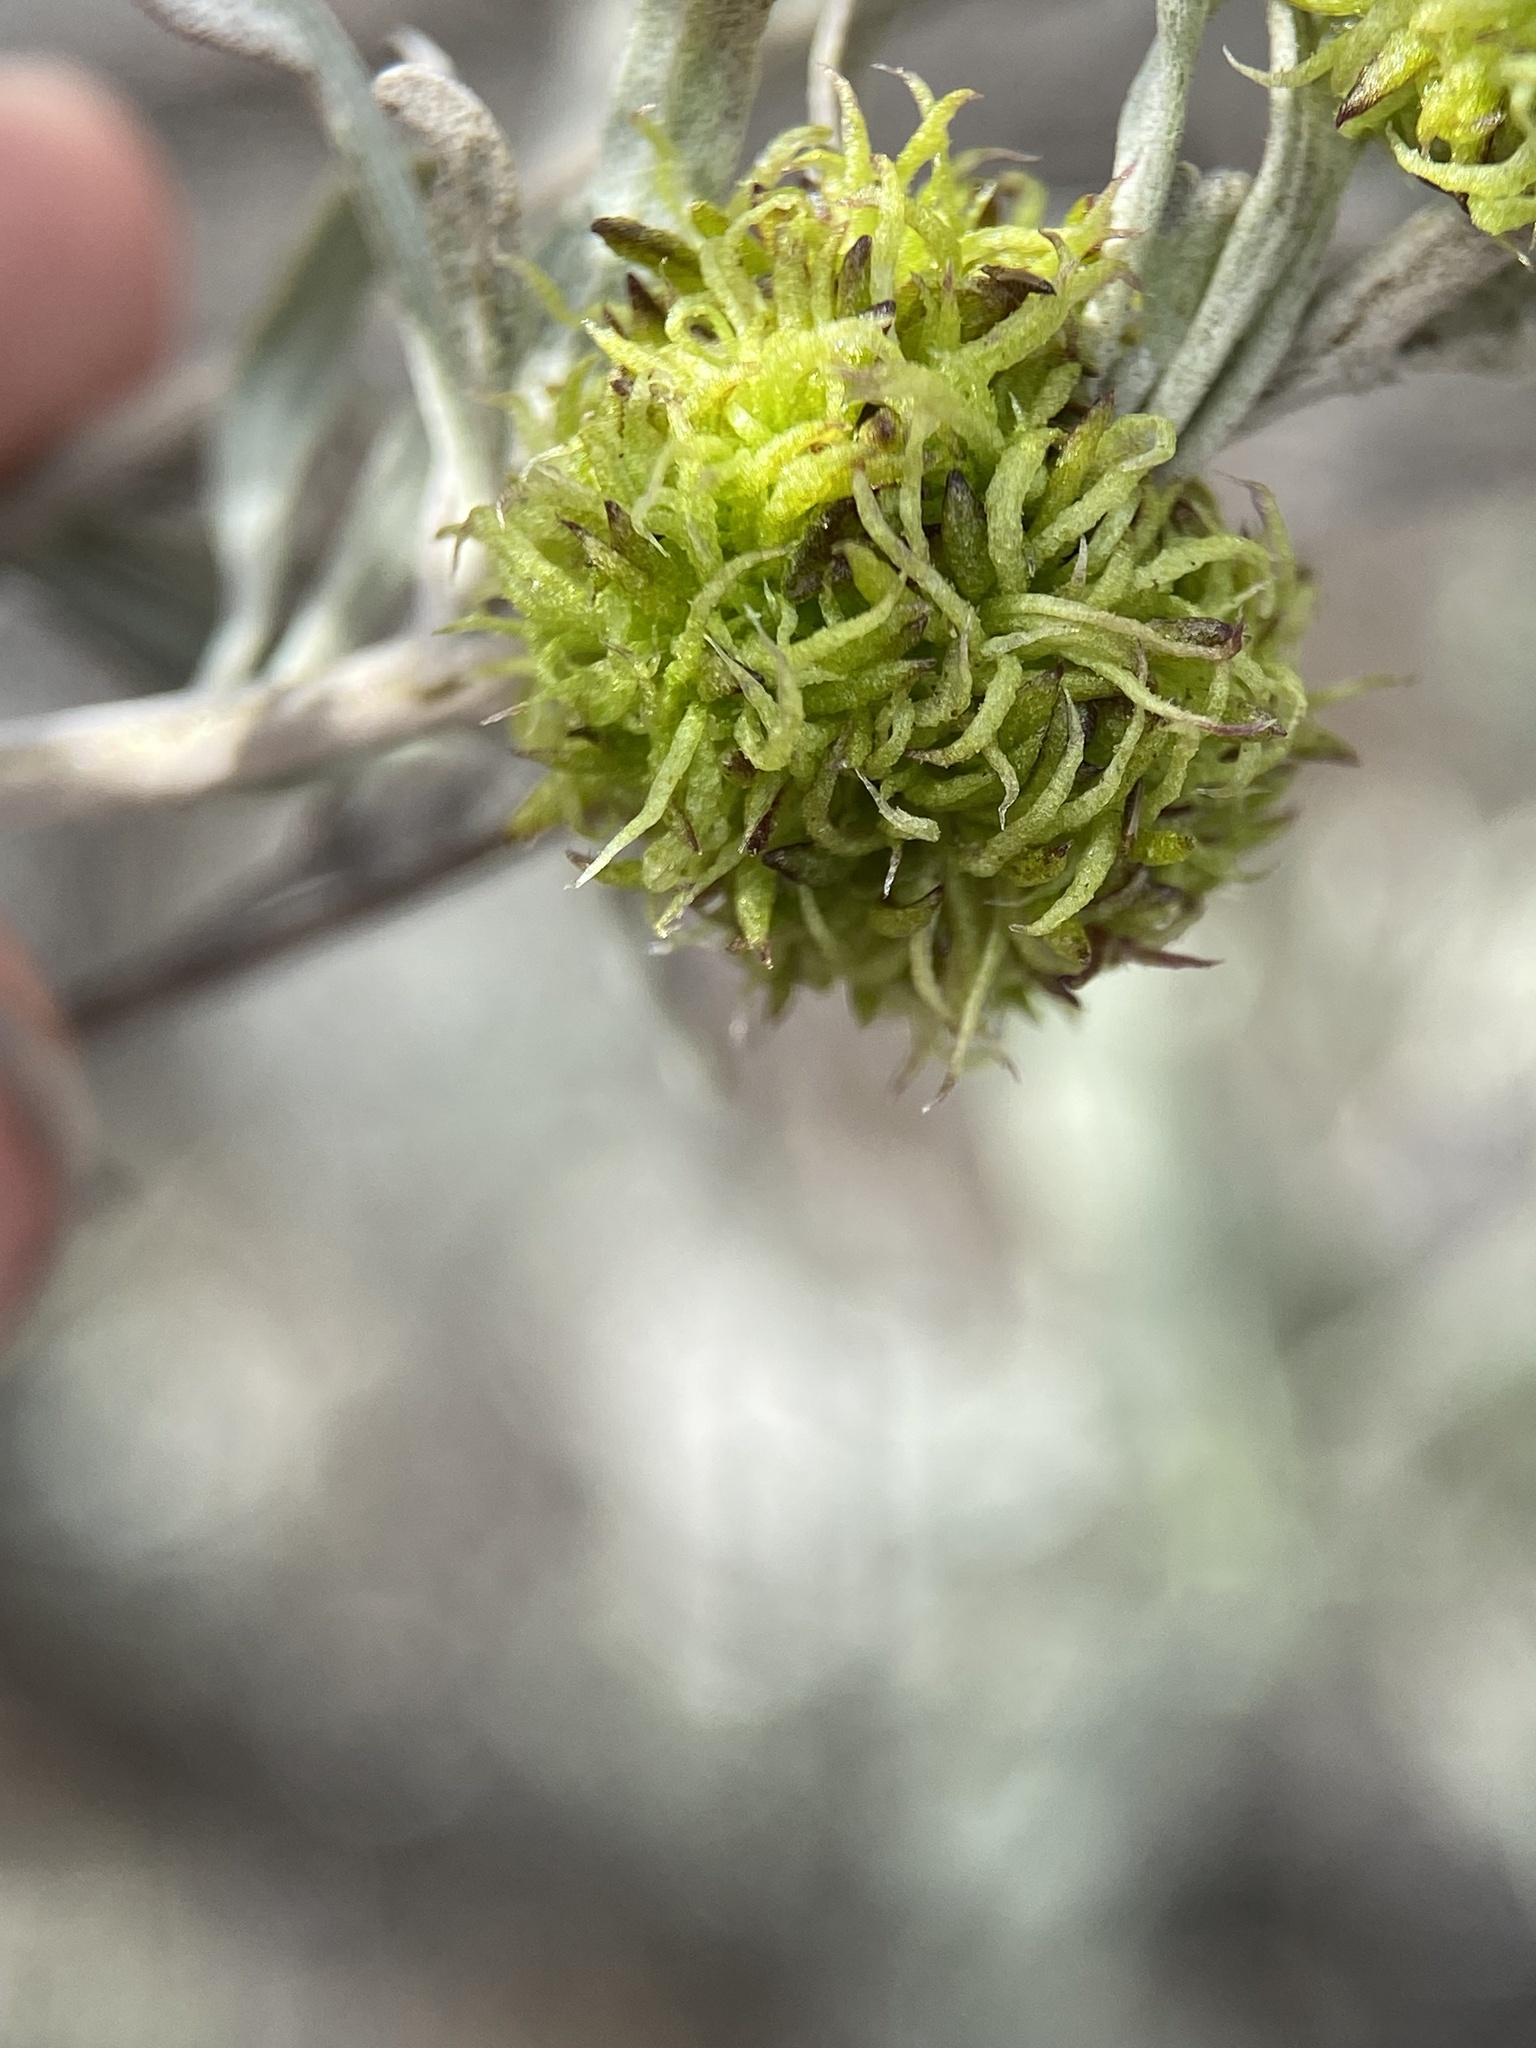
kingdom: Animalia
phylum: Arthropoda
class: Insecta
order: Diptera
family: Cecidomyiidae
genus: Rhopalomyia
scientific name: Rhopalomyia medusa
